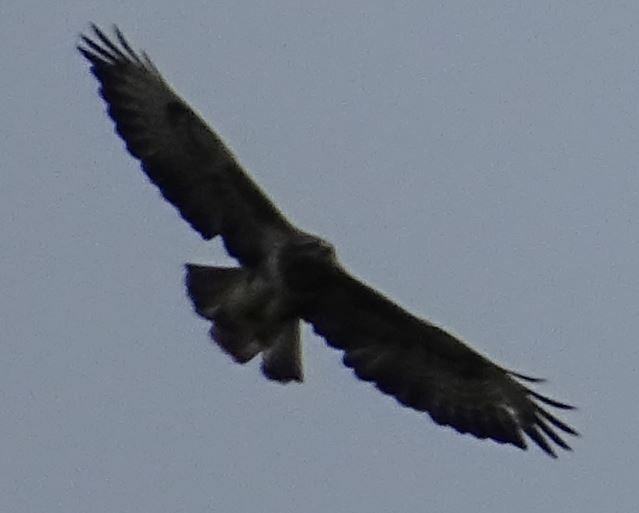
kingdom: Animalia
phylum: Chordata
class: Aves
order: Accipitriformes
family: Accipitridae
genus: Buteo
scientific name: Buteo buteo
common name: Common buzzard
